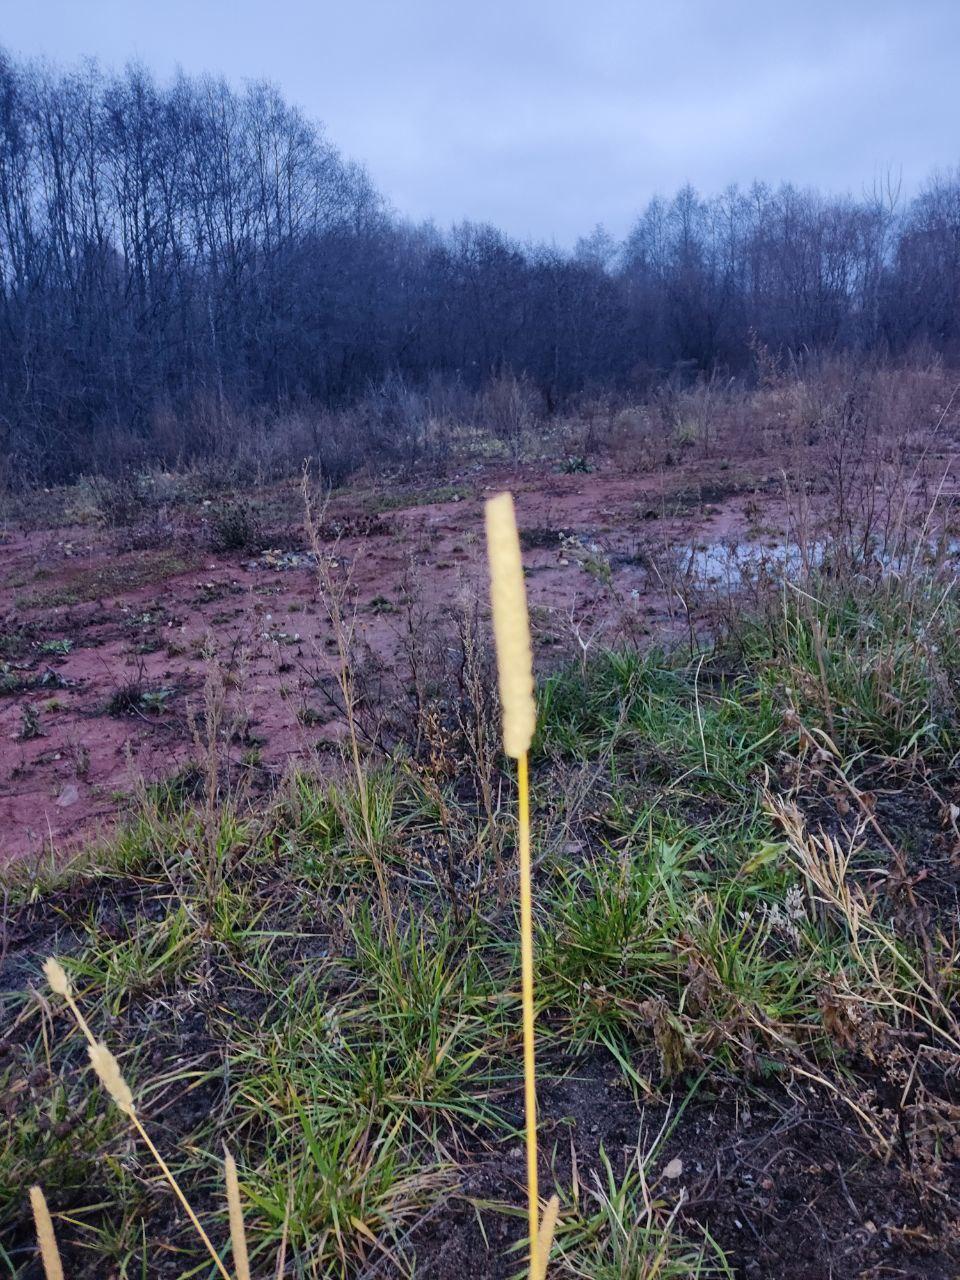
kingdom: Plantae
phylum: Tracheophyta
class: Liliopsida
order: Poales
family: Poaceae
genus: Phleum
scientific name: Phleum pratense
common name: Timothy grass
